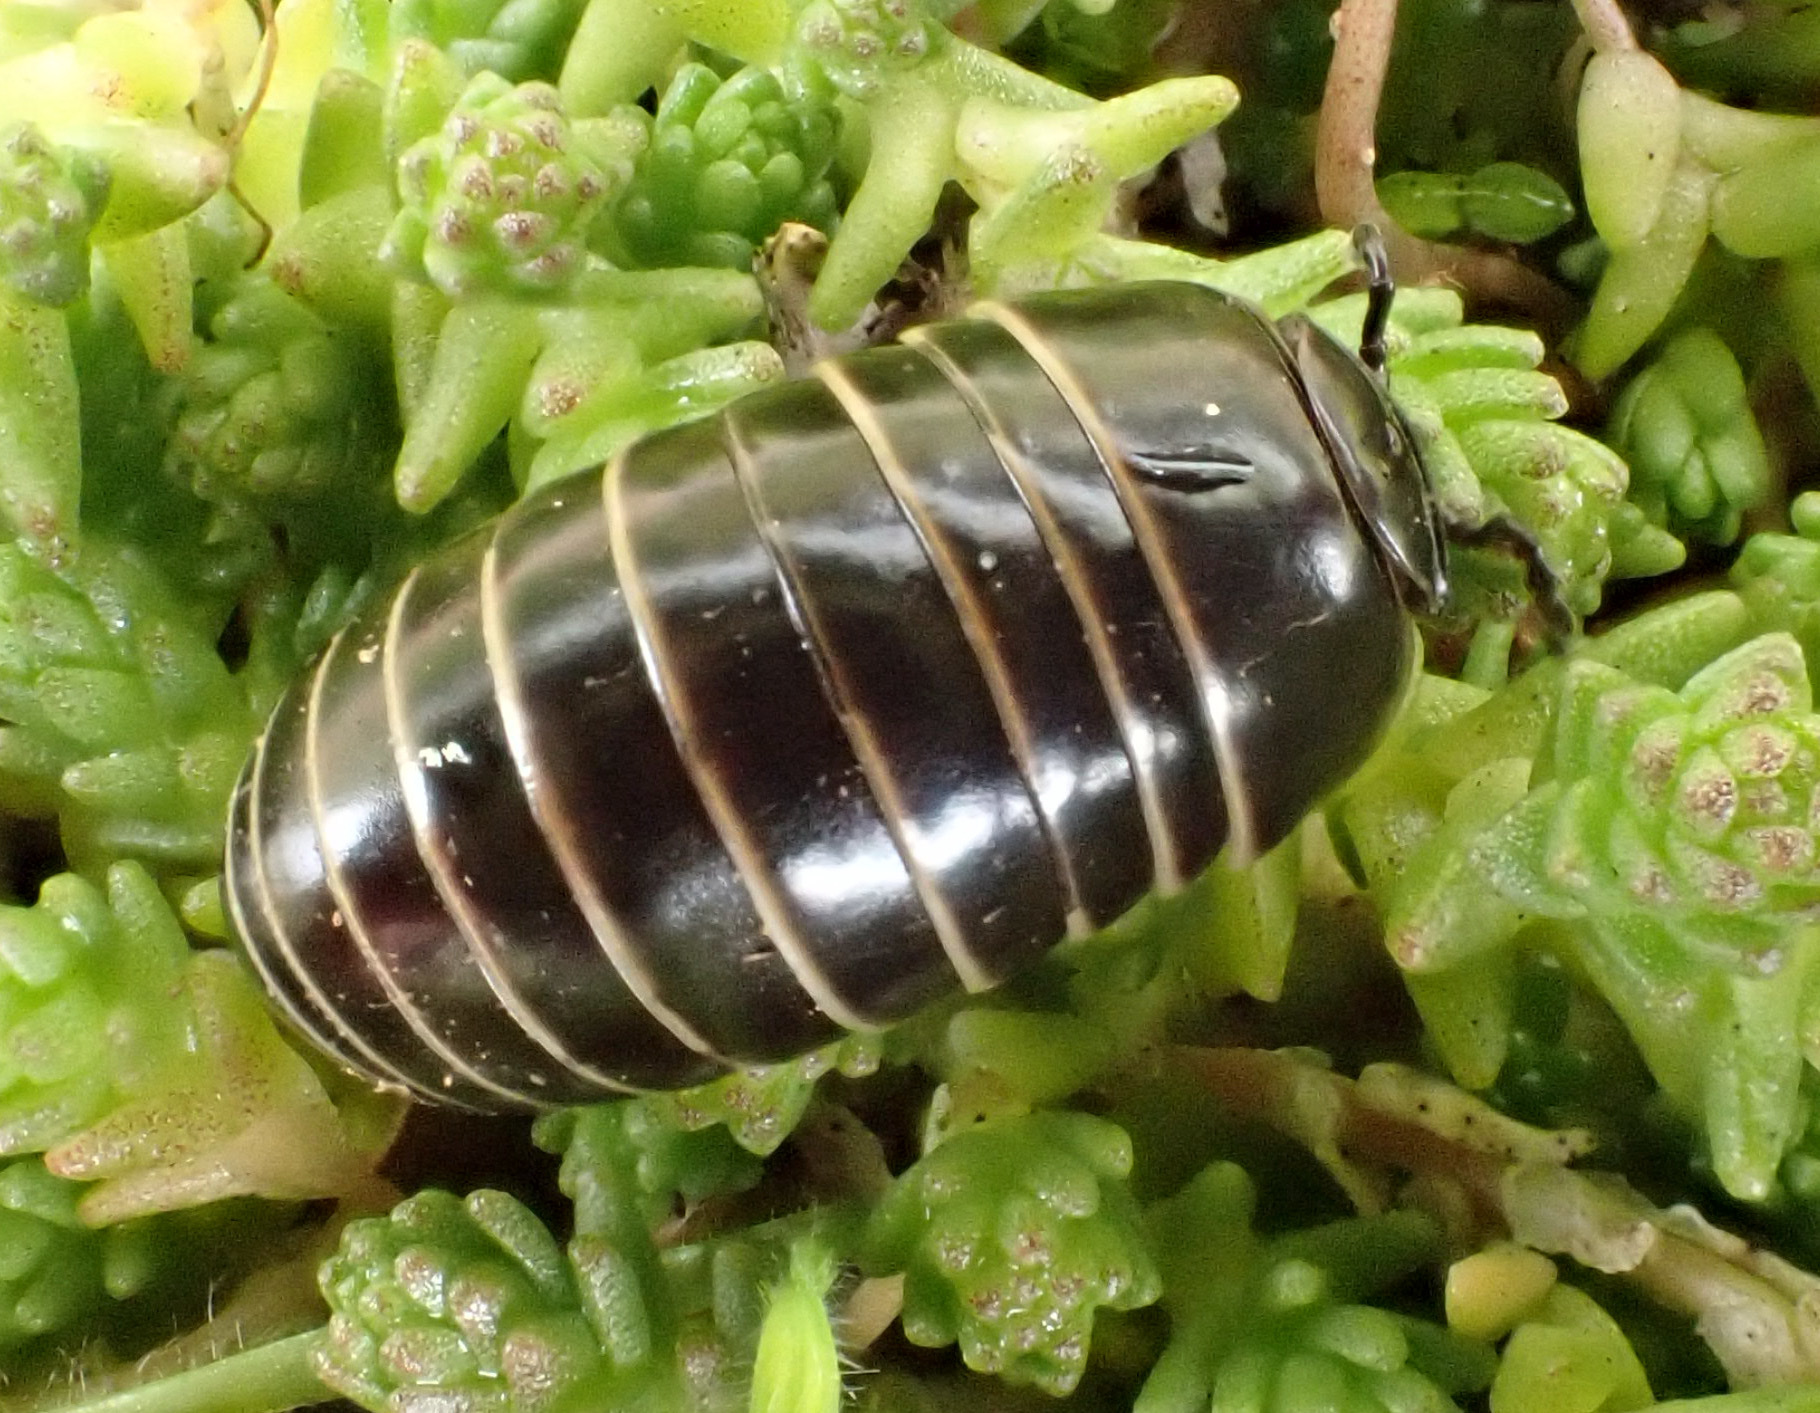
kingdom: Animalia
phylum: Arthropoda
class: Diplopoda
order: Glomerida
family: Glomeridae
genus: Glomeris
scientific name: Glomeris marginata
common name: Bordered pill millipede
